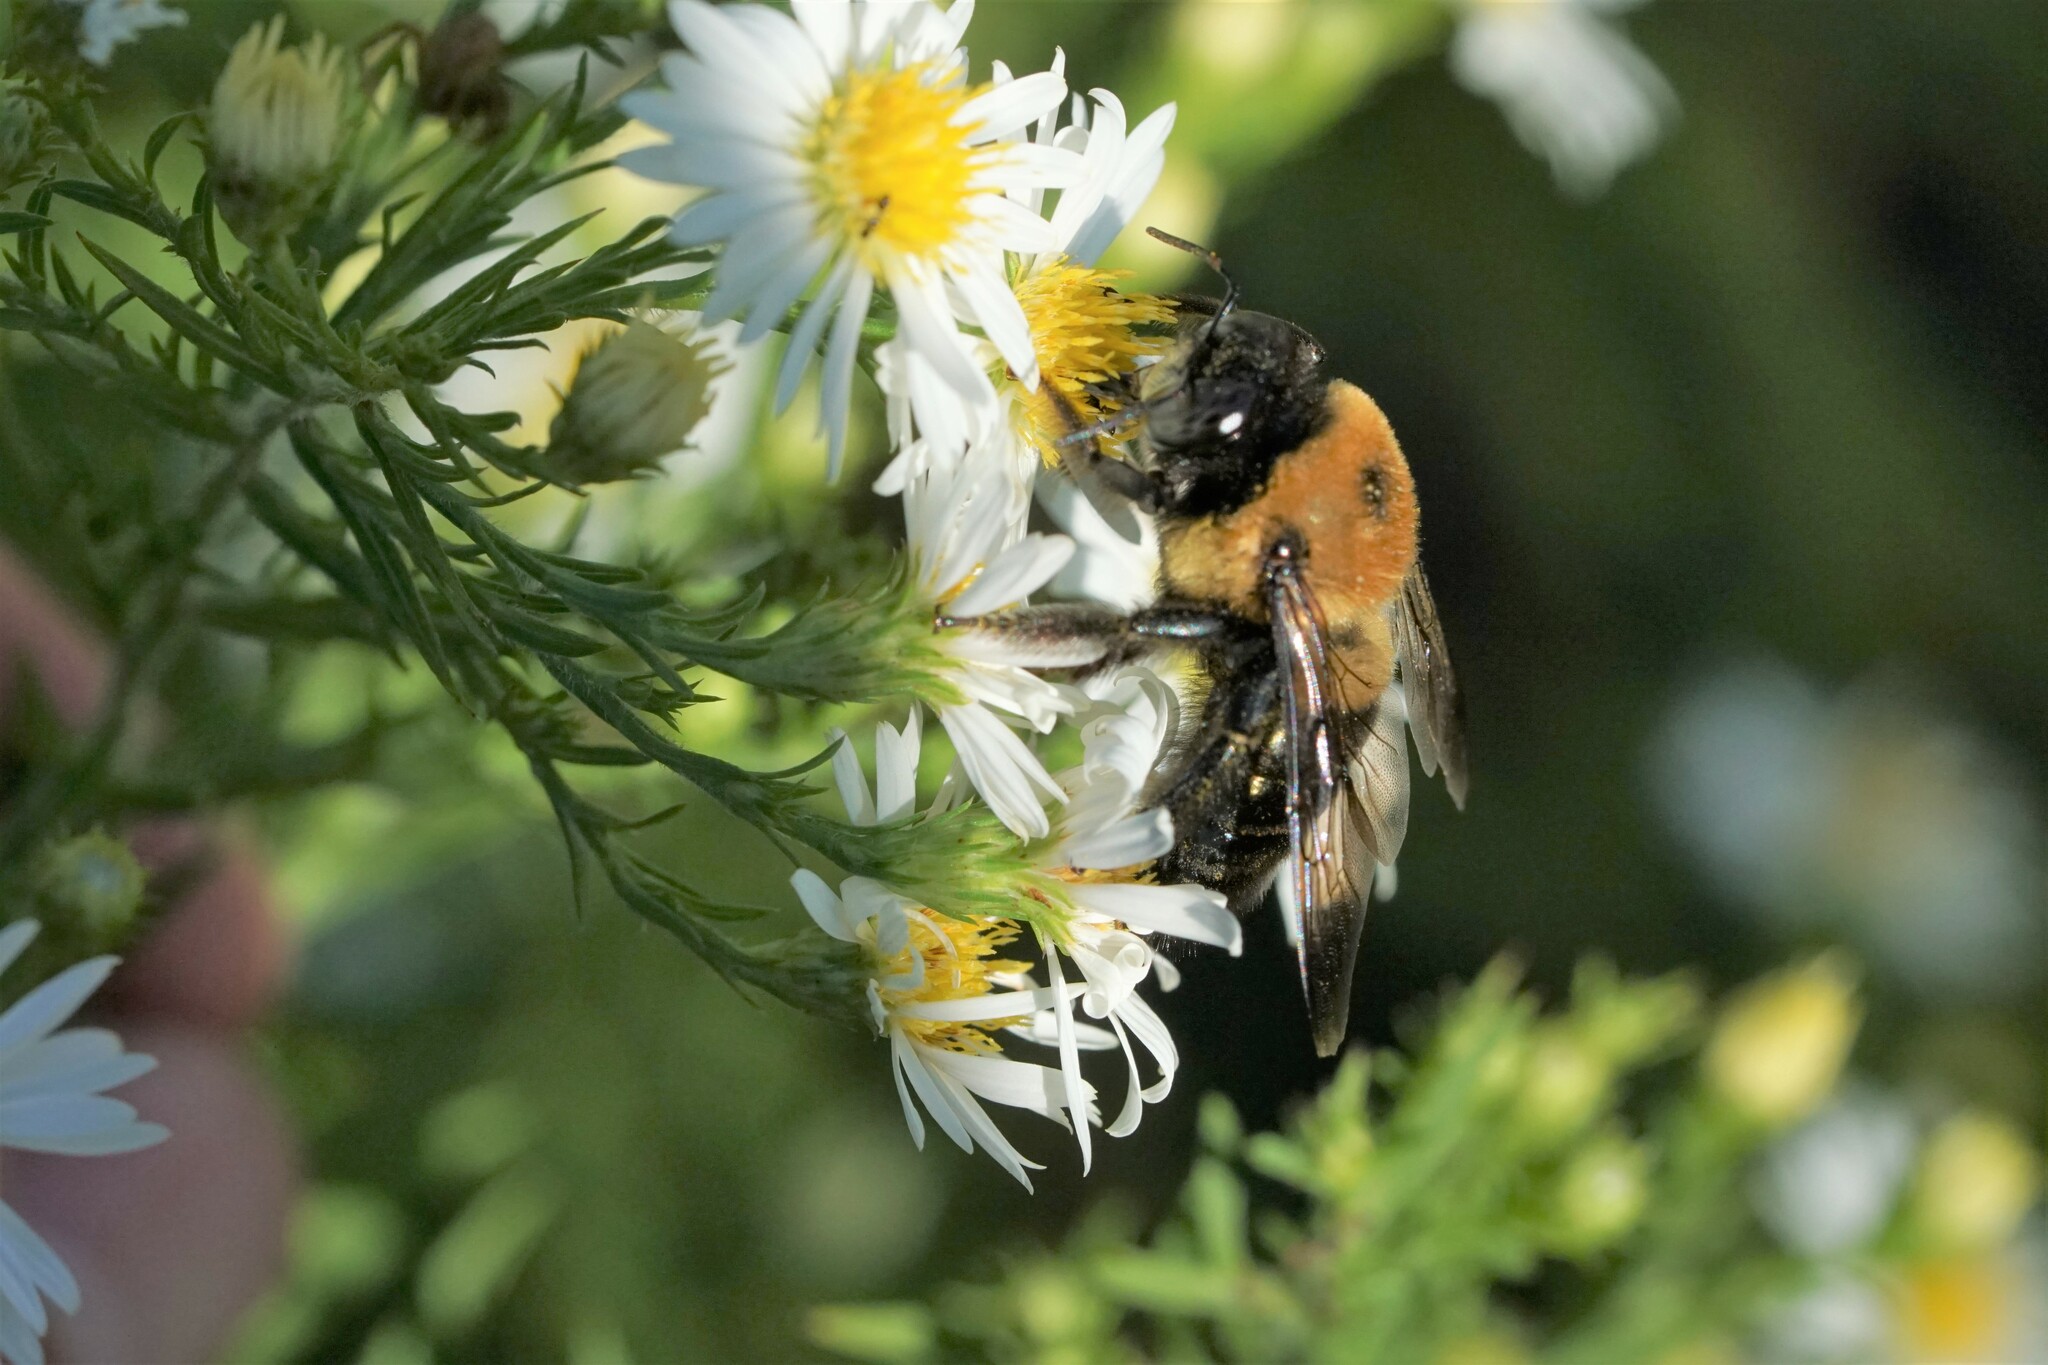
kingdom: Animalia
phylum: Arthropoda
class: Insecta
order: Hymenoptera
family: Apidae
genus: Xylocopa
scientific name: Xylocopa virginica
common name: Carpenter bee
